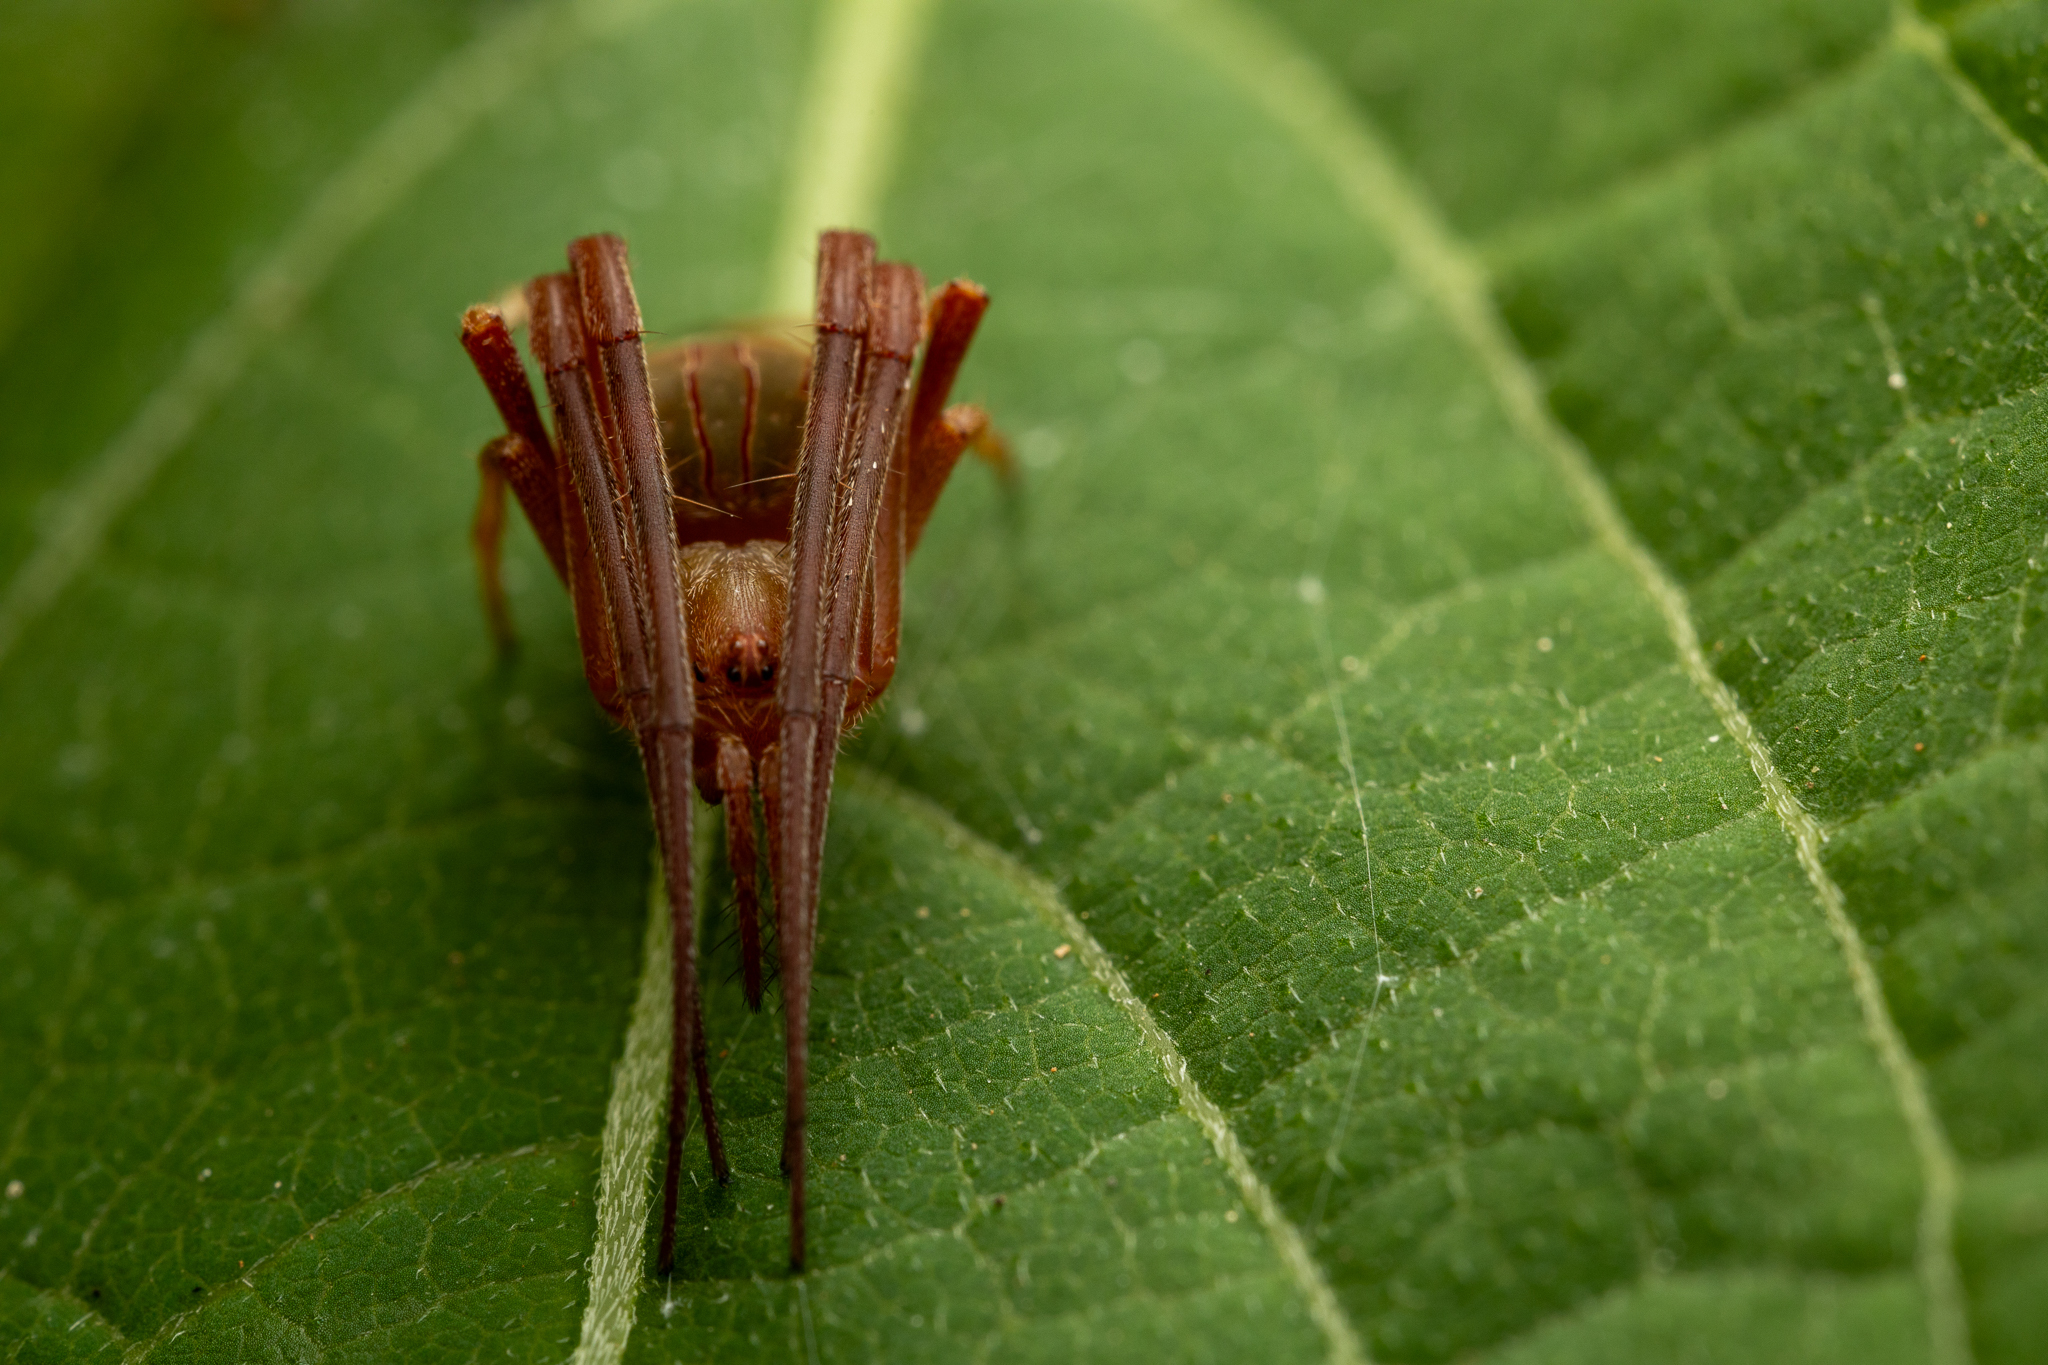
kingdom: Animalia
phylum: Arthropoda
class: Arachnida
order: Araneae
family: Araneidae
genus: Acacesia
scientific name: Acacesia hamata
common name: Orb weavers
